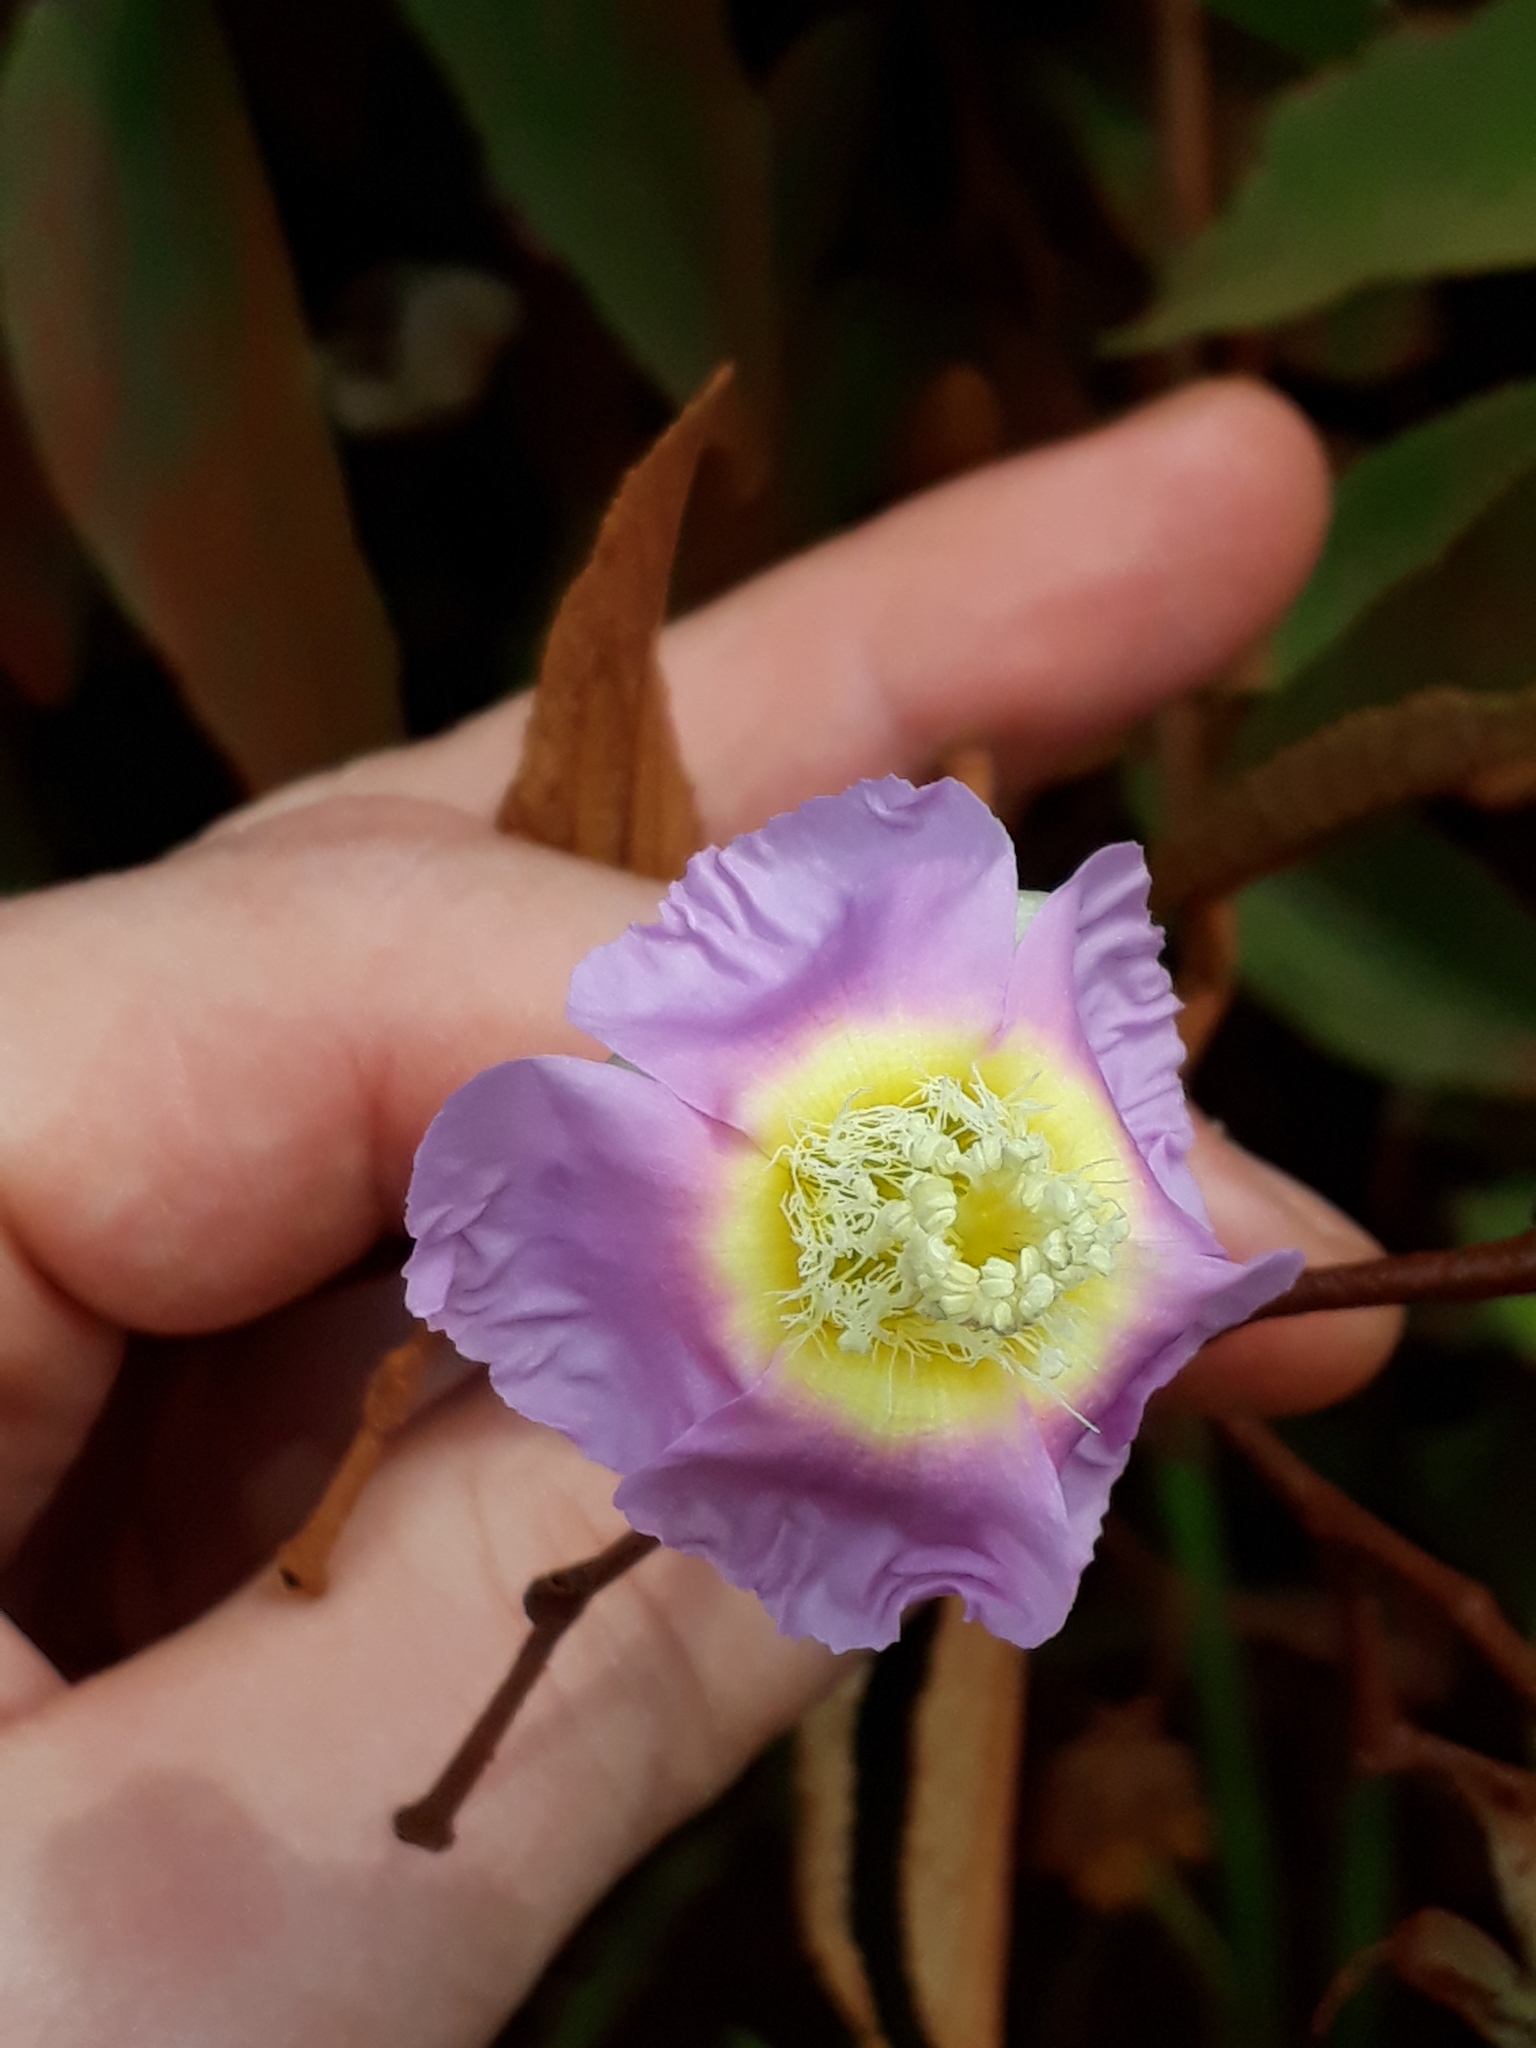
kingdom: Plantae
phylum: Tracheophyta
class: Magnoliopsida
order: Malvales
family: Malvaceae
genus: Luehea
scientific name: Luehea divaricata
